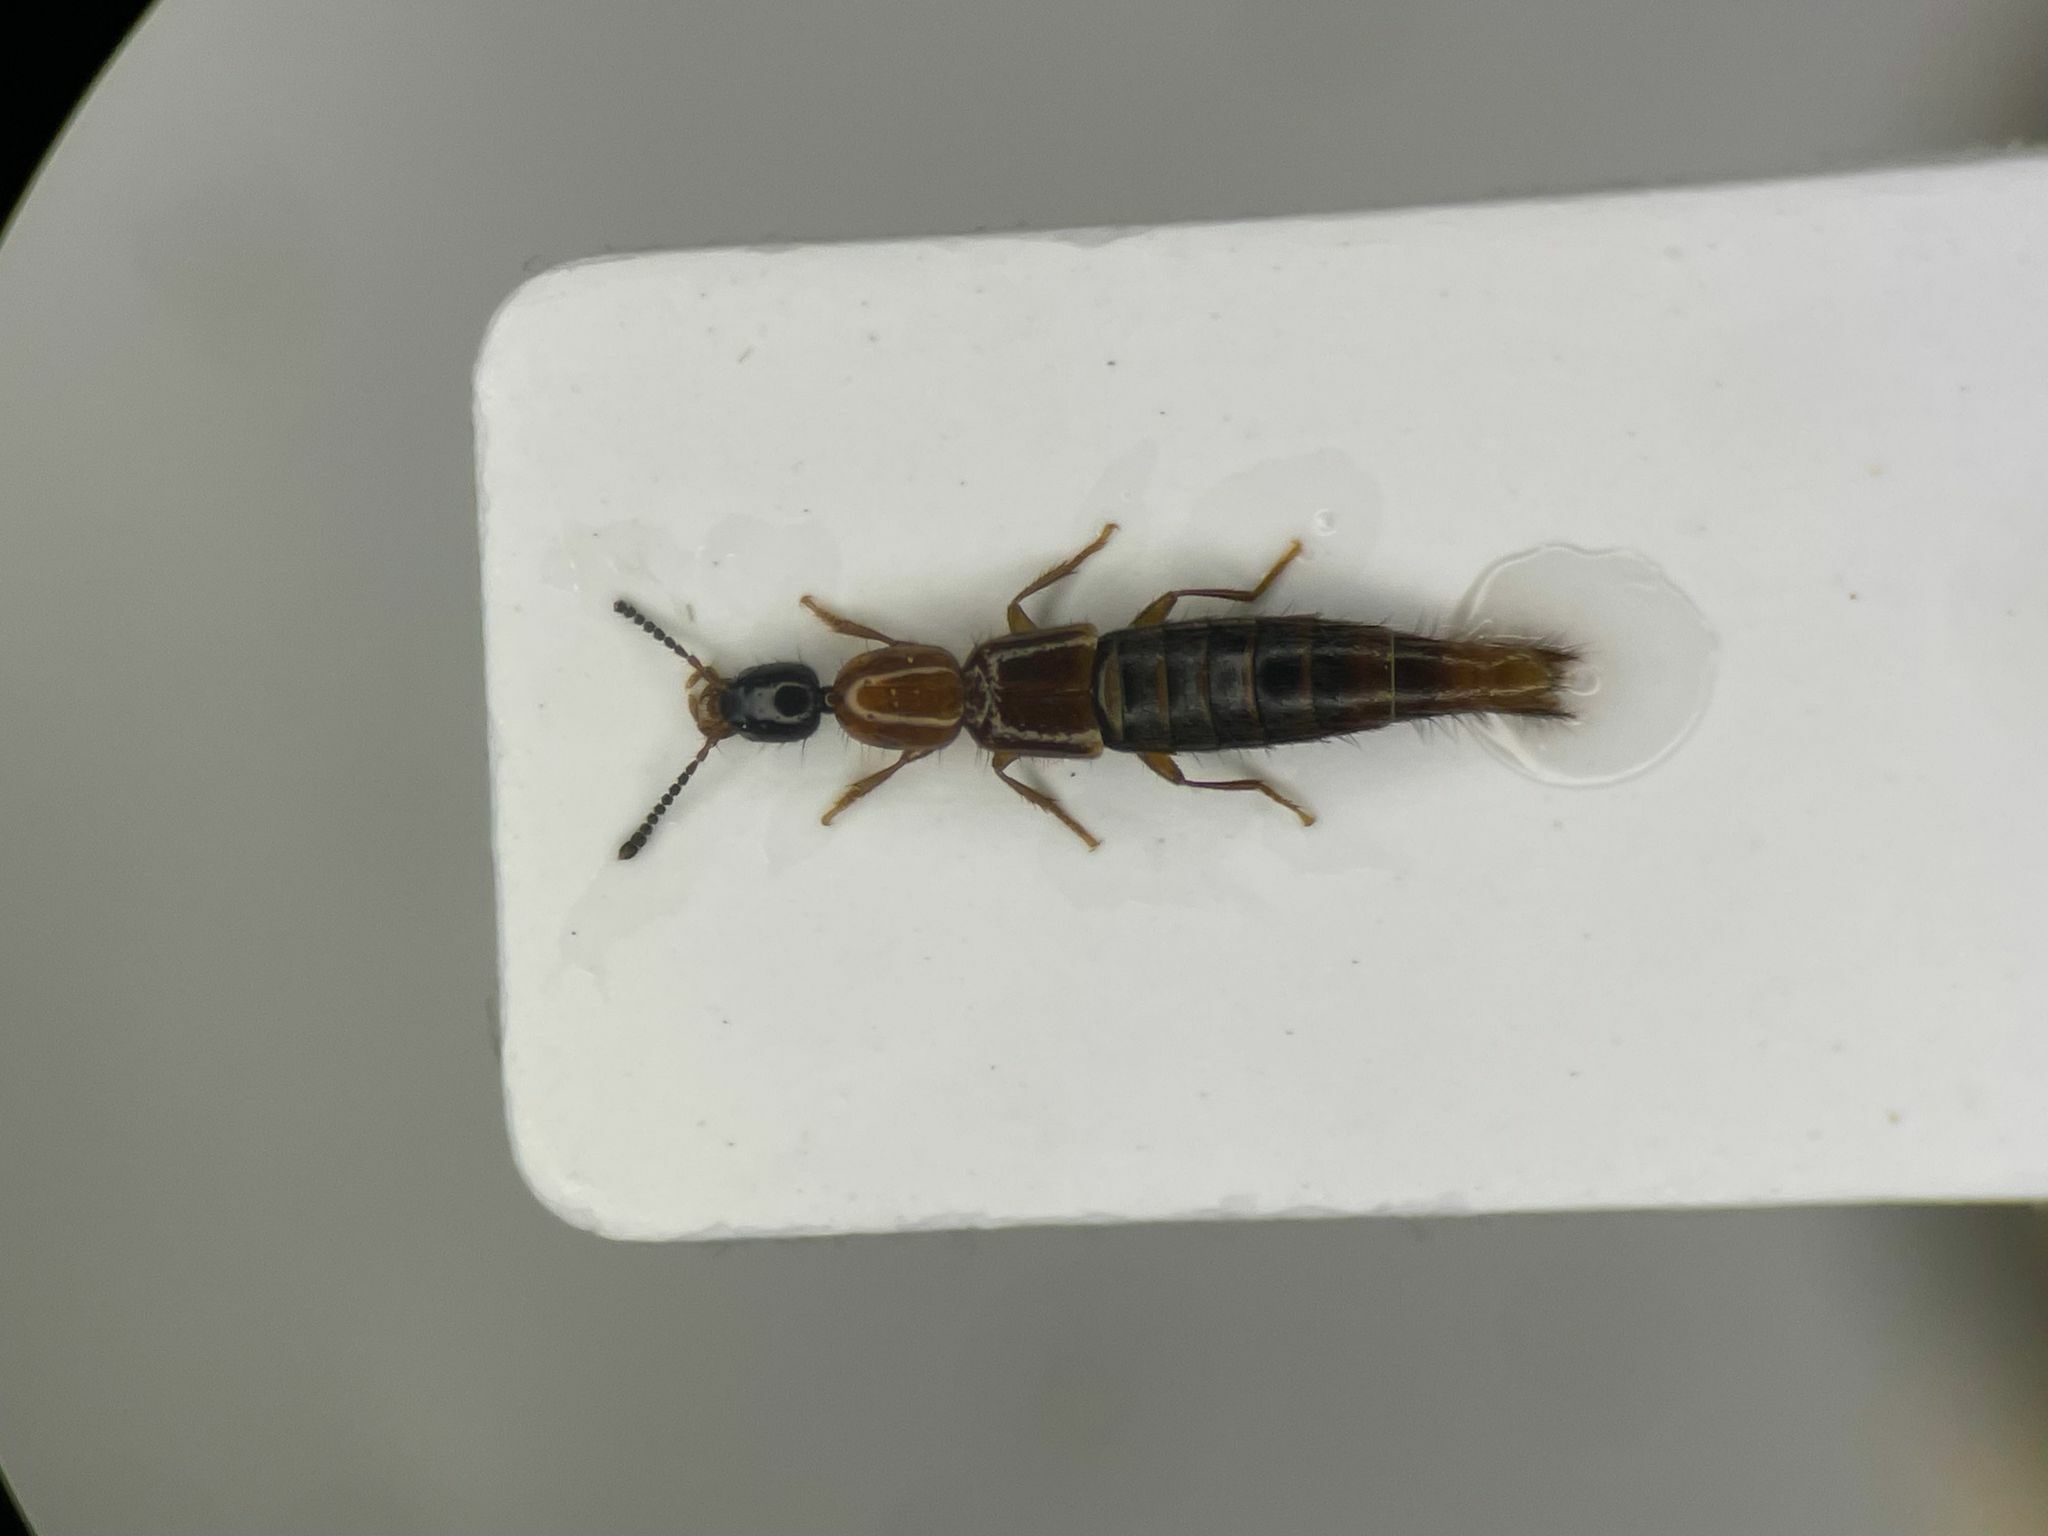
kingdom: Animalia
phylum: Arthropoda
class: Insecta
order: Coleoptera
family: Staphylinidae
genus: Diochus
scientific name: Diochus schaumii
